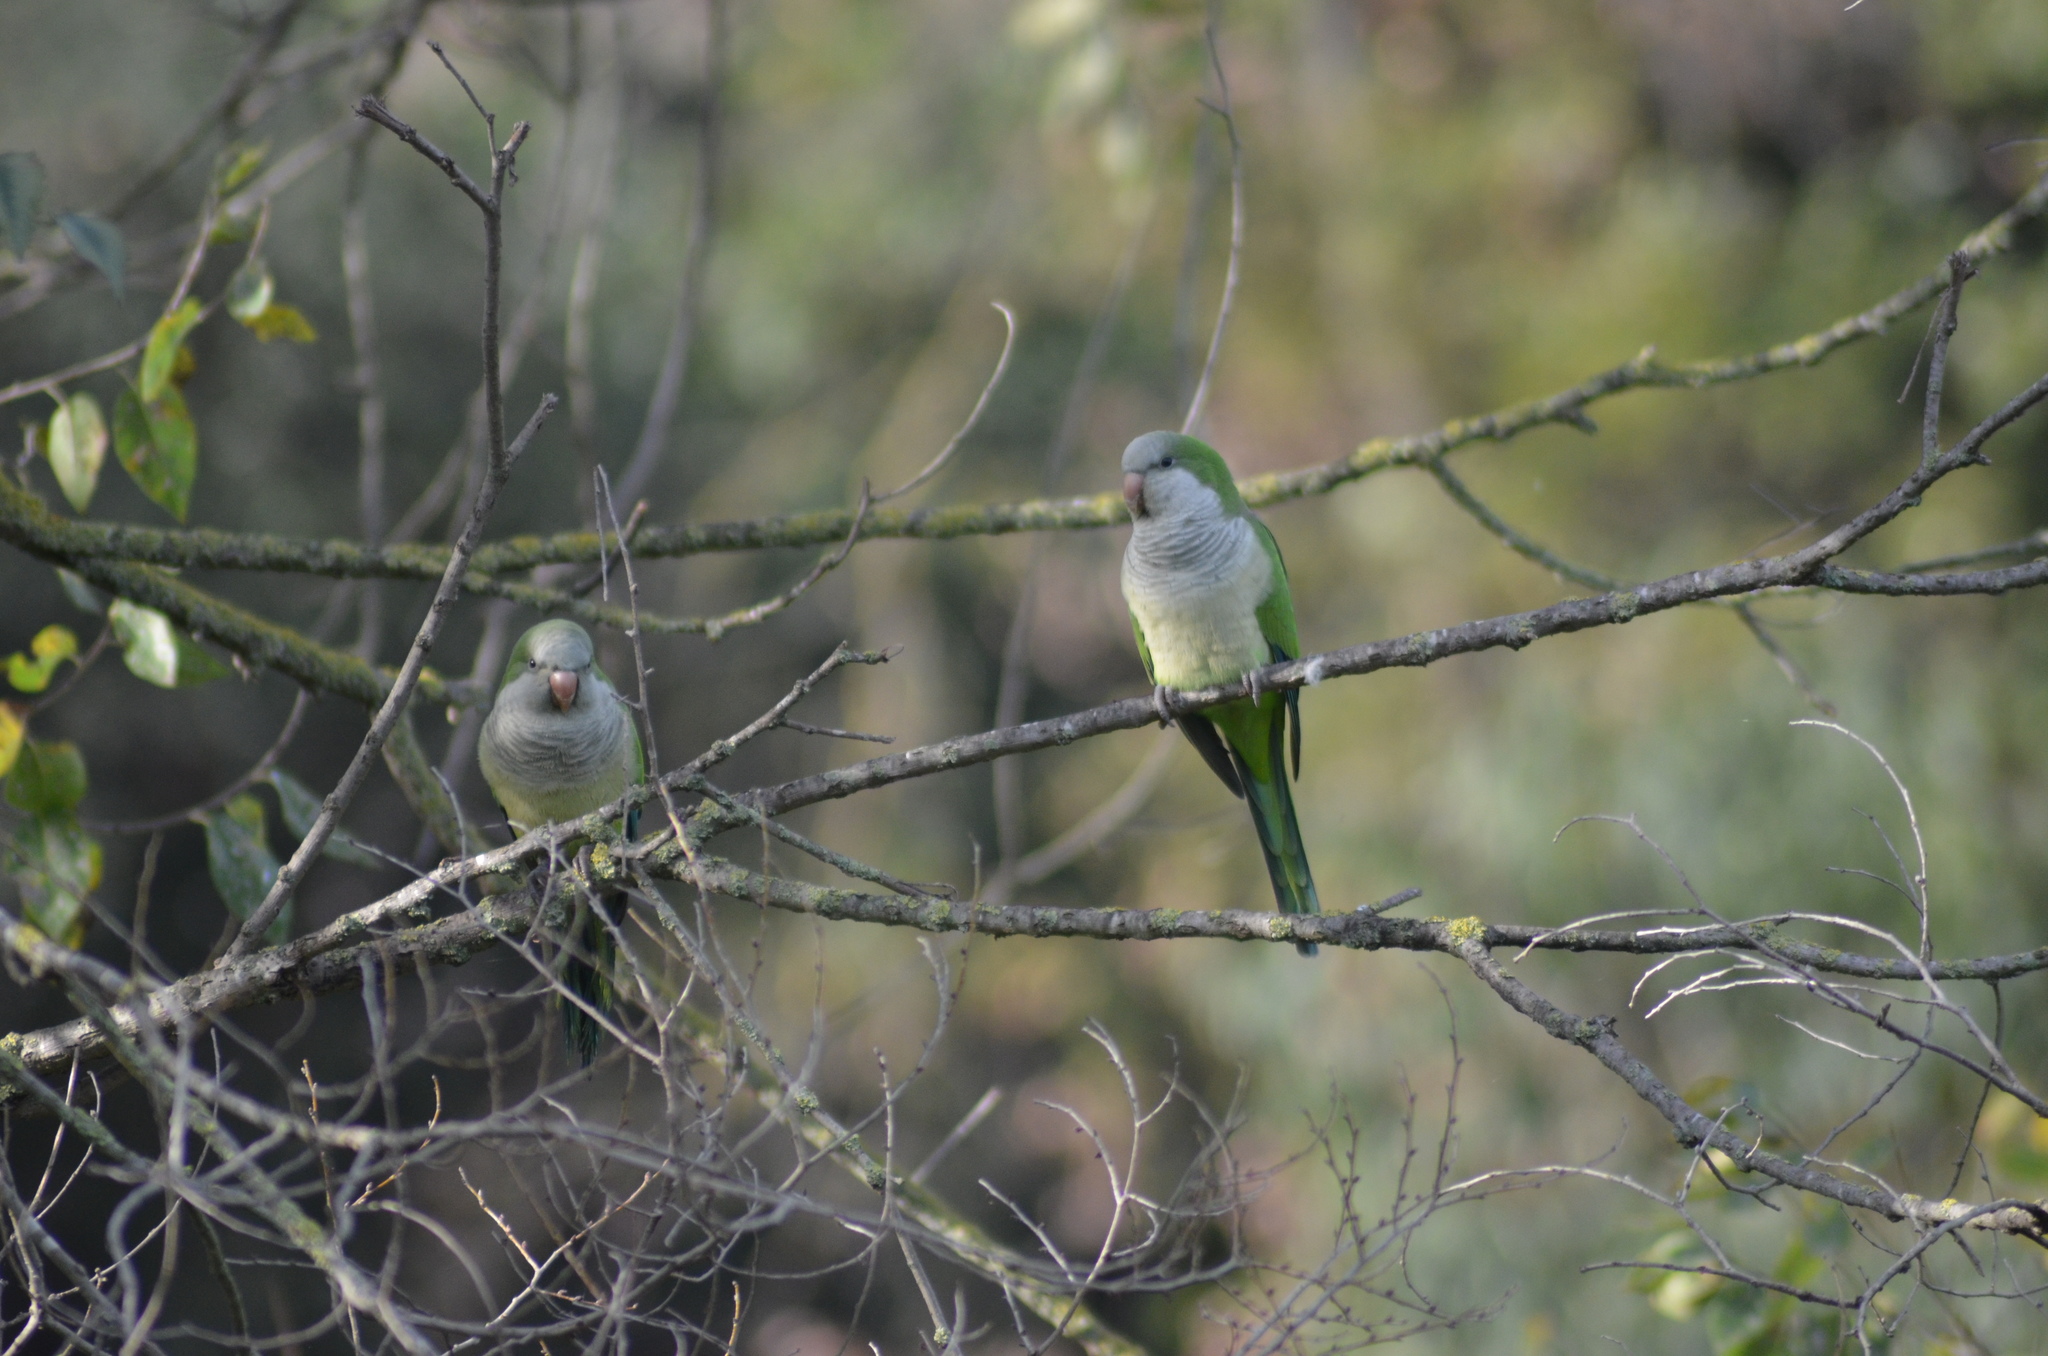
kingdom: Animalia
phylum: Chordata
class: Aves
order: Psittaciformes
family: Psittacidae
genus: Myiopsitta
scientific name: Myiopsitta monachus
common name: Monk parakeet
